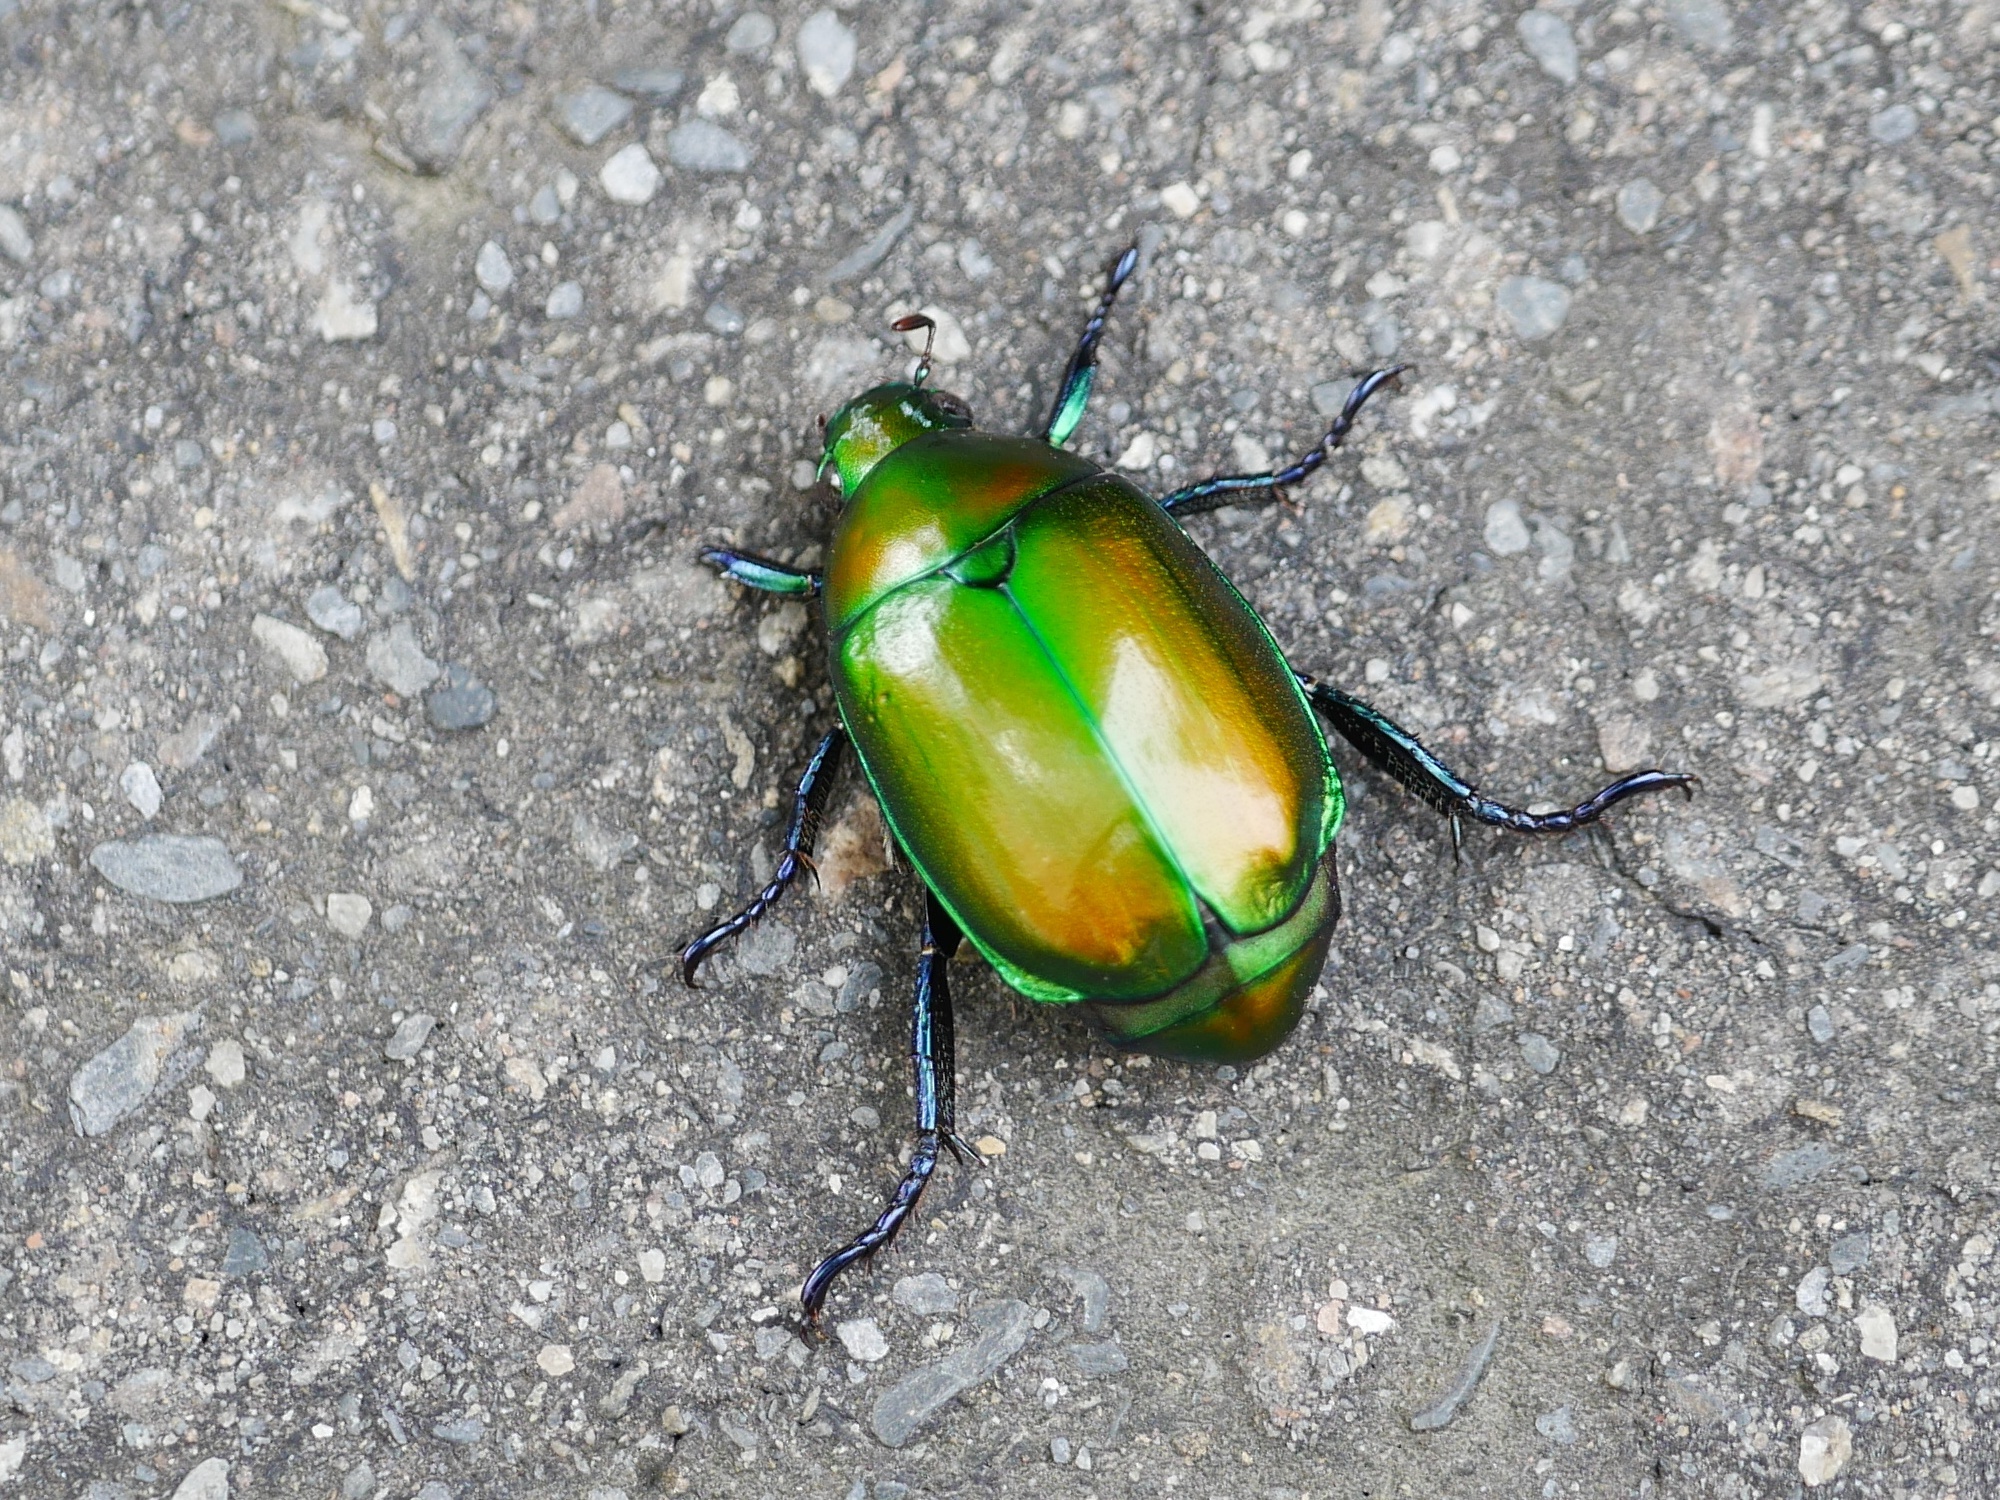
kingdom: Animalia
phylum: Arthropoda
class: Insecta
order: Coleoptera
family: Scarabaeidae
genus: Anomala
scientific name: Anomala expansa
